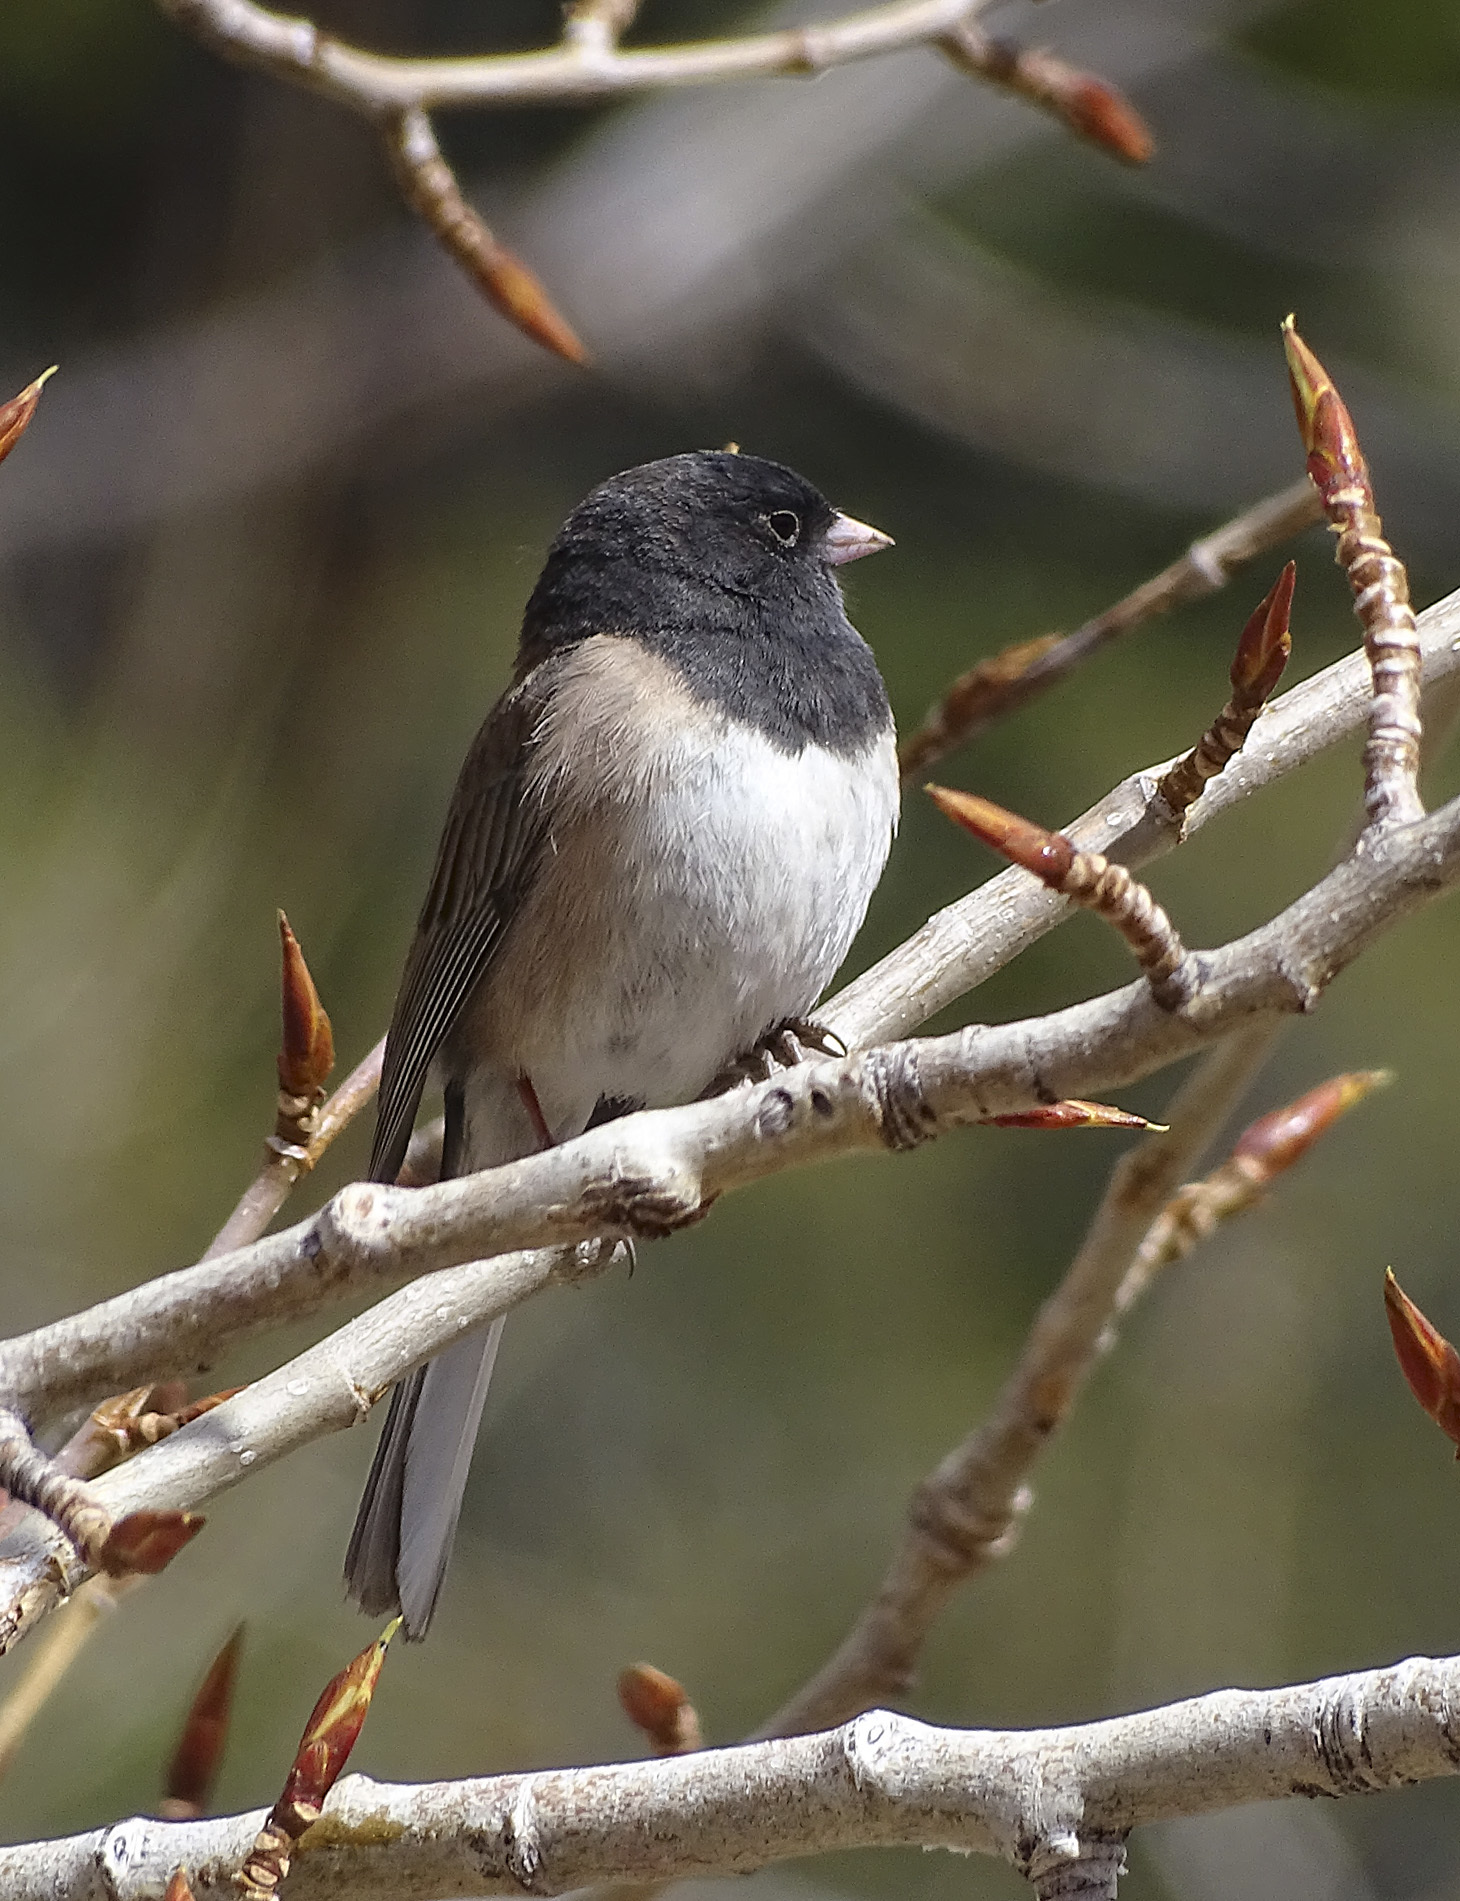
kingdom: Animalia
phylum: Chordata
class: Aves
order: Passeriformes
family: Passerellidae
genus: Junco
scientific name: Junco hyemalis
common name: Dark-eyed junco
